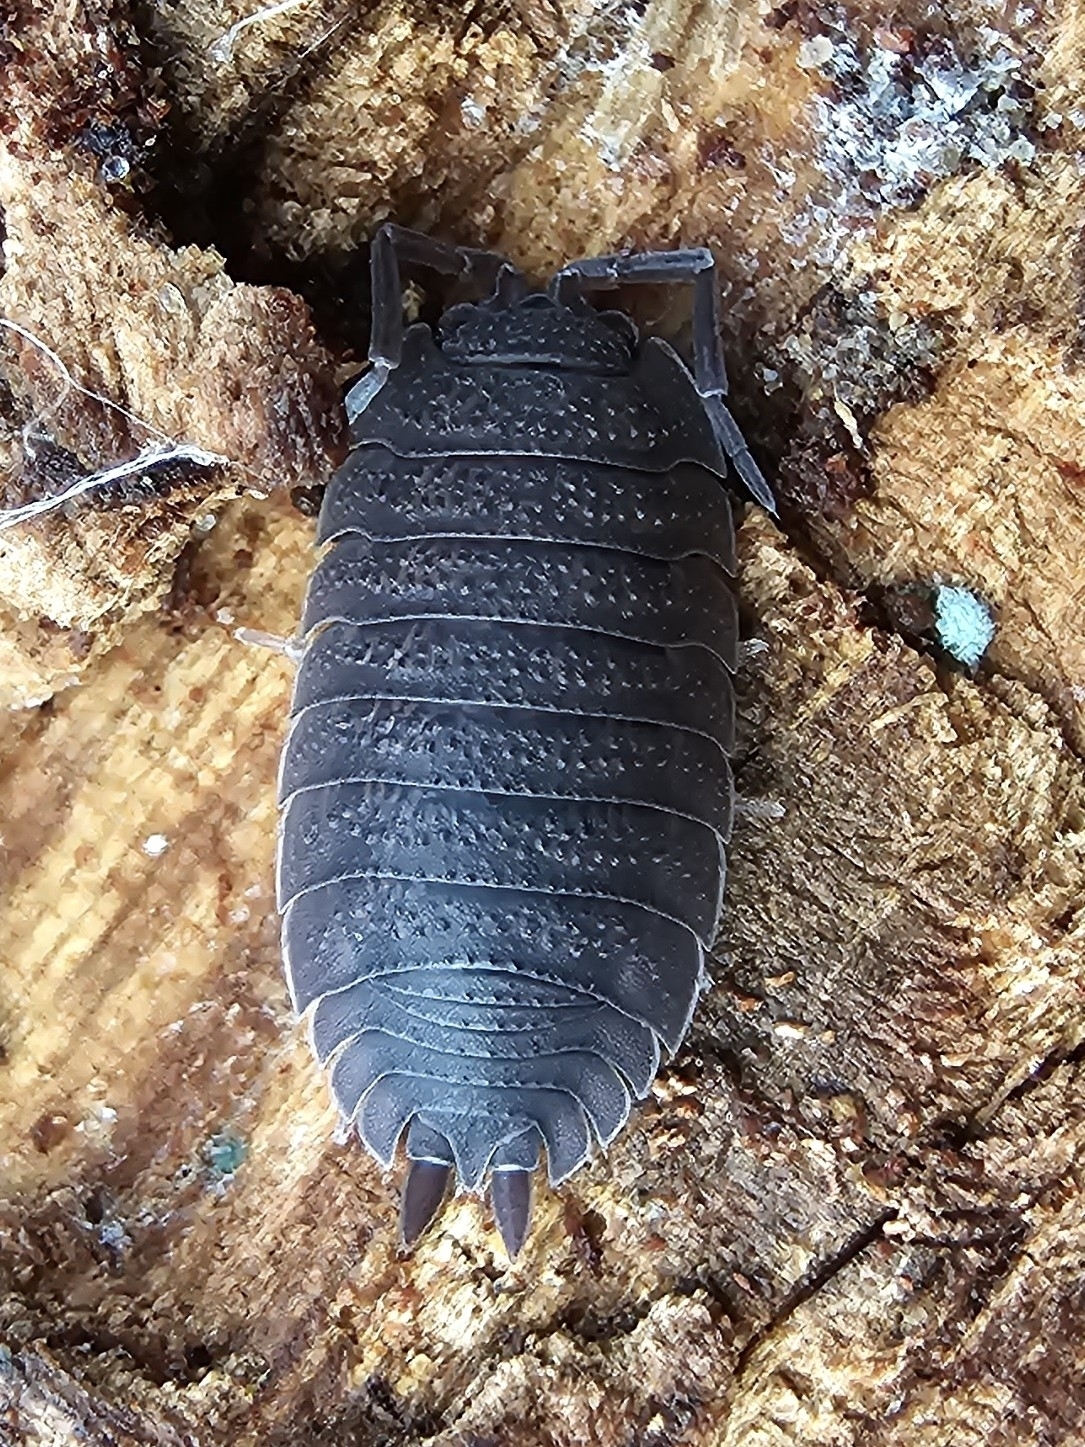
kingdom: Animalia
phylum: Arthropoda
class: Malacostraca
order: Isopoda
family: Porcellionidae
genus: Porcellio
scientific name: Porcellio scaber
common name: Common rough woodlouse
